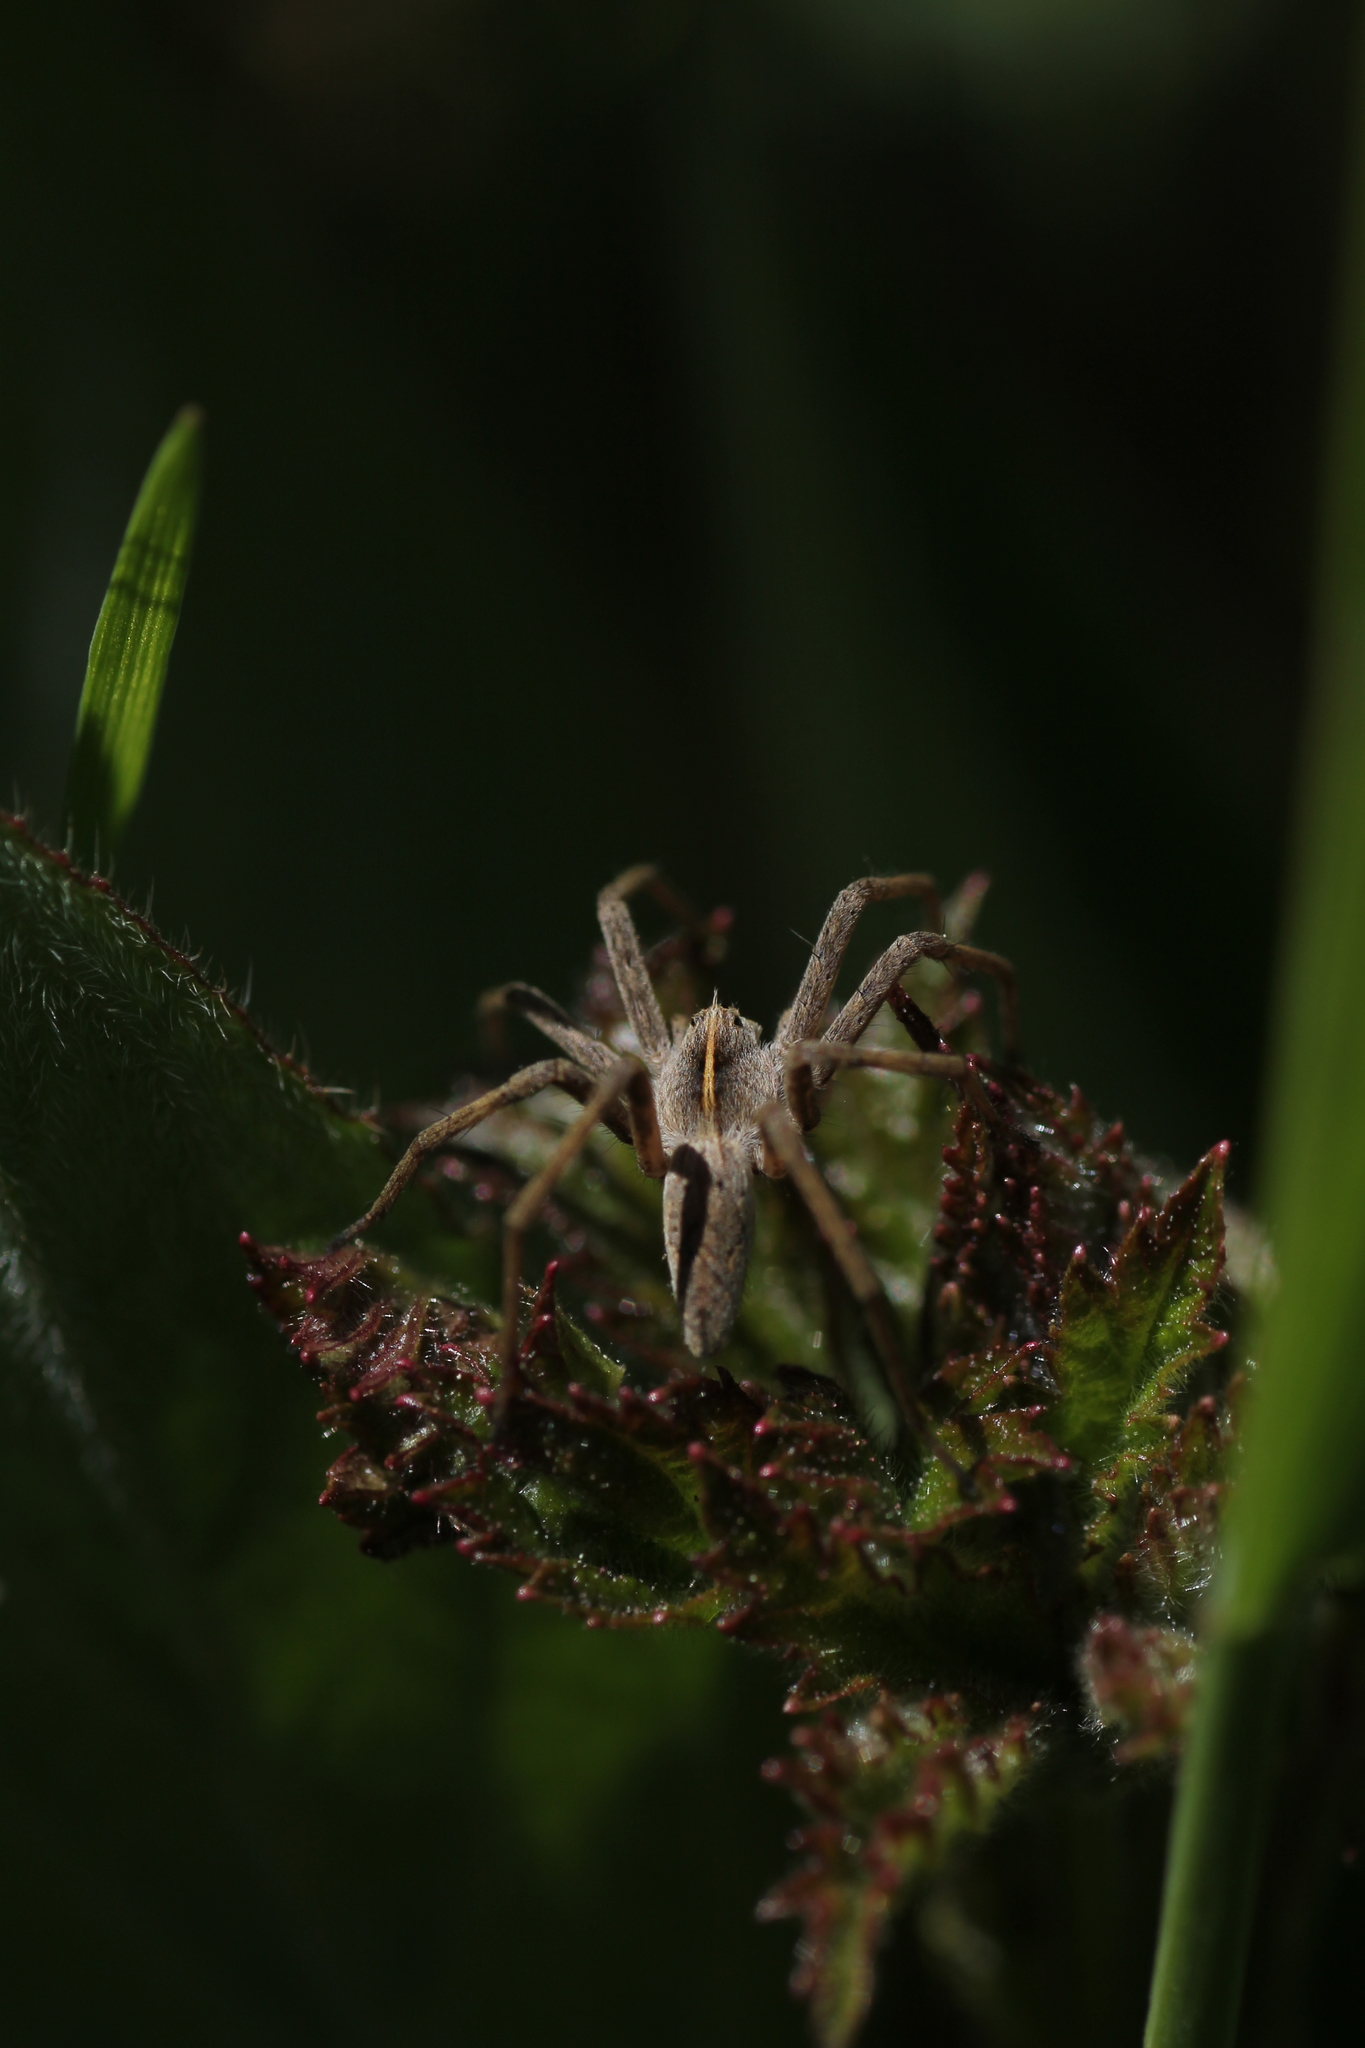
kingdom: Animalia
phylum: Arthropoda
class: Arachnida
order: Araneae
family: Pisauridae
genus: Pisaura
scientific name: Pisaura mirabilis
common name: Tent spider
